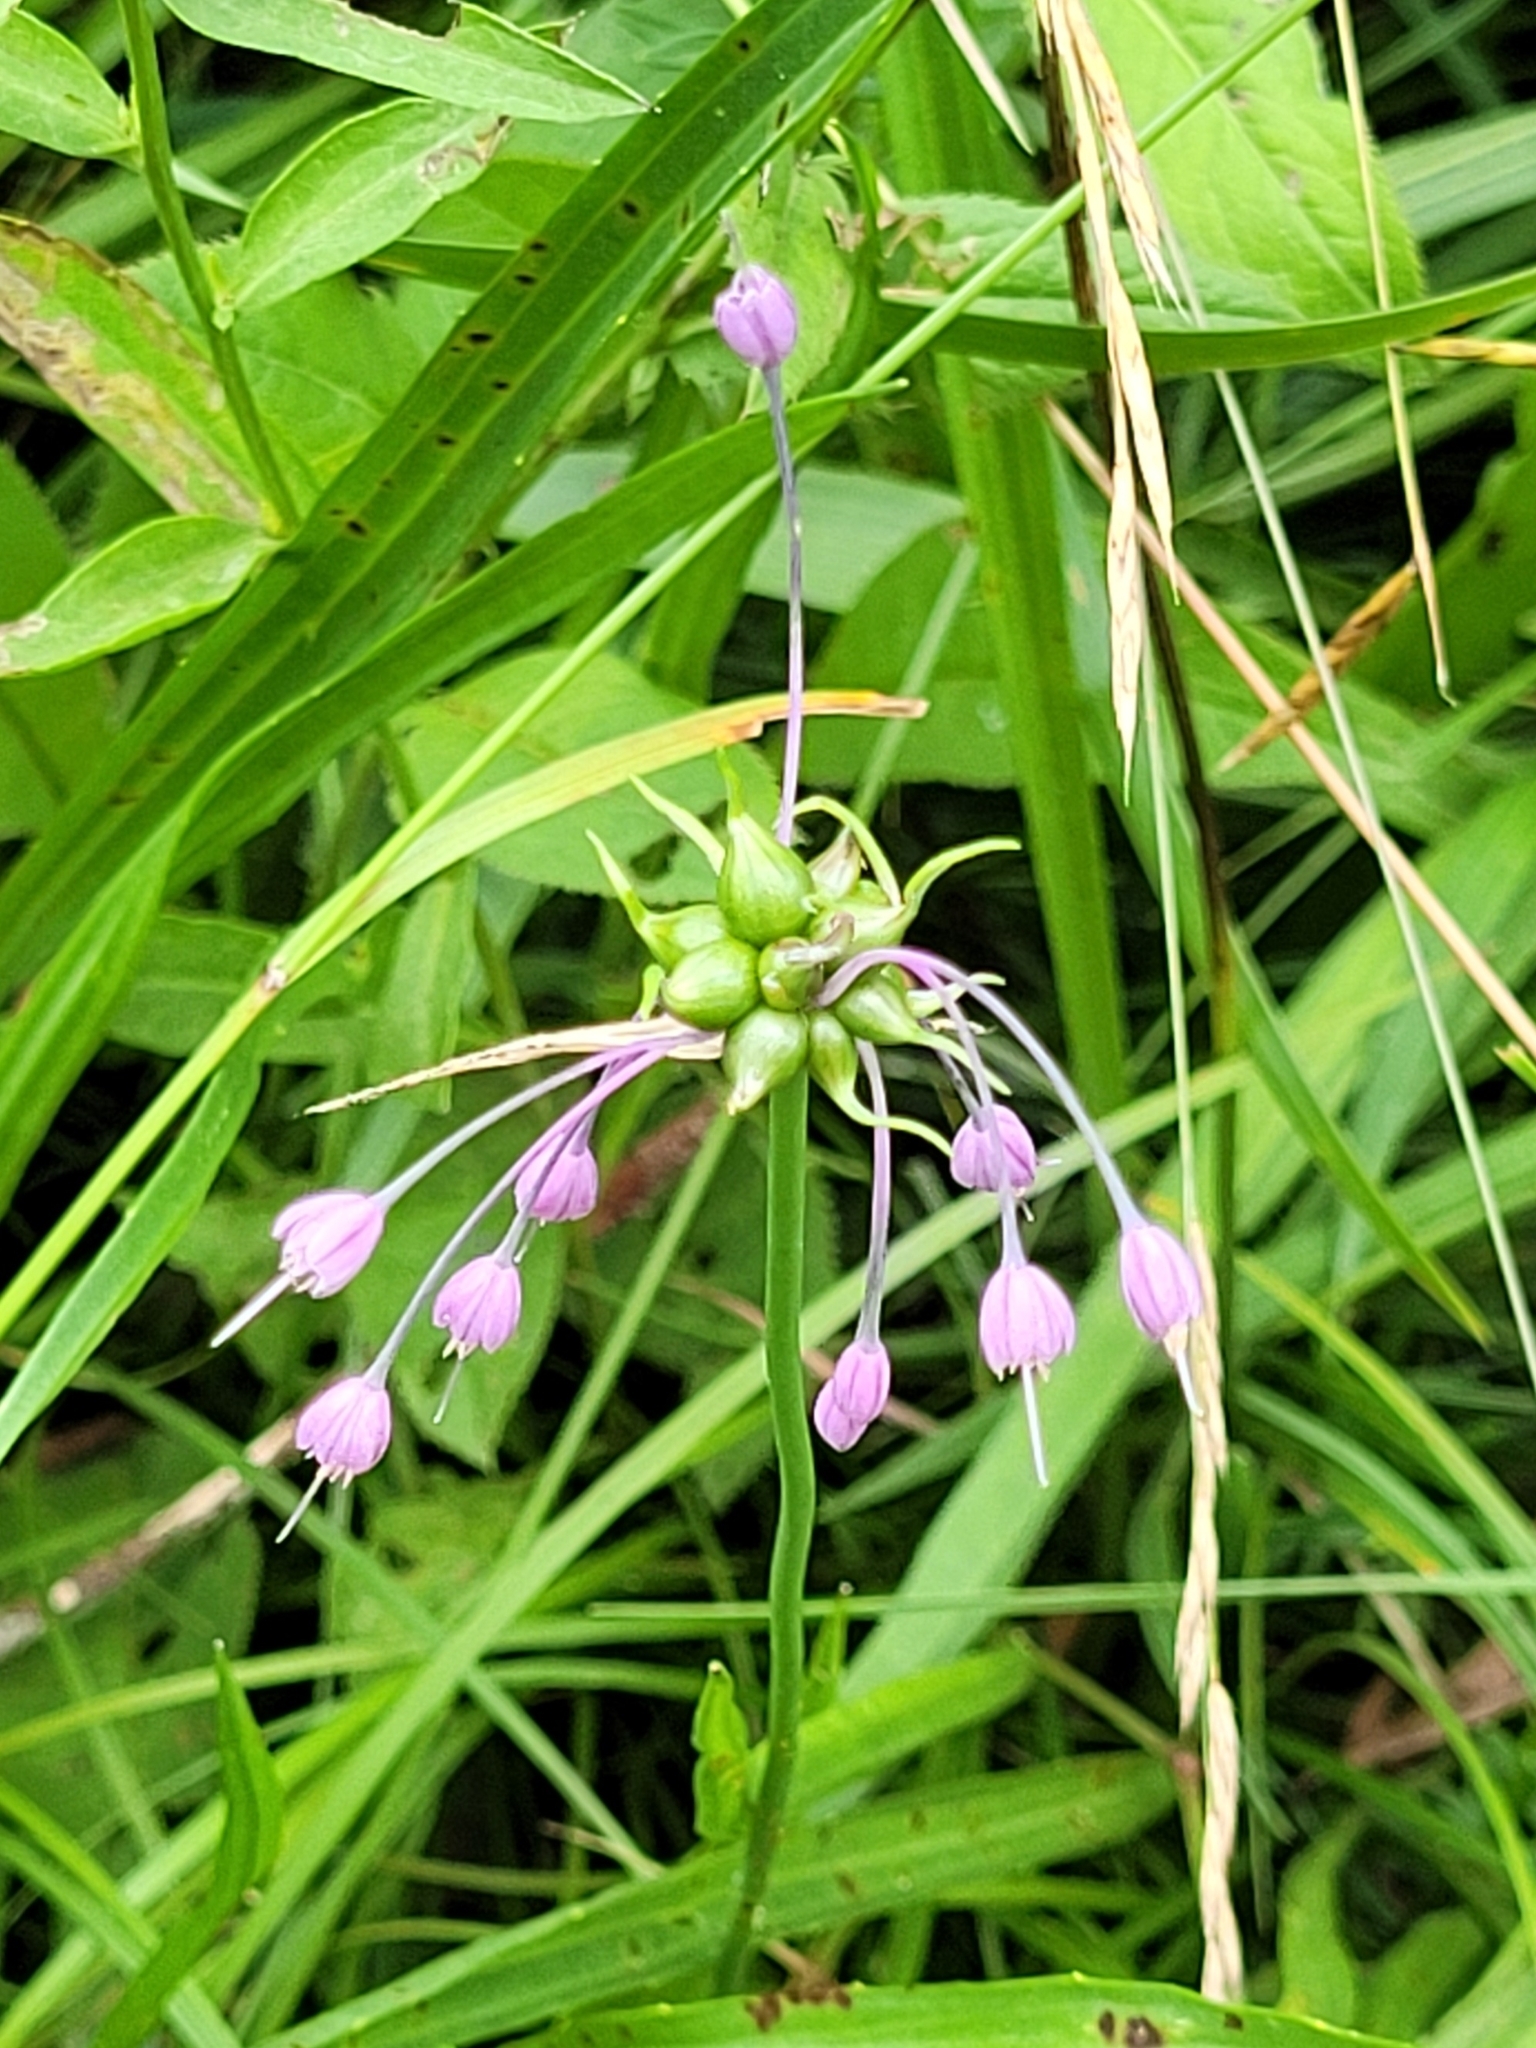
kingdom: Plantae
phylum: Tracheophyta
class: Liliopsida
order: Asparagales
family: Amaryllidaceae
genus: Allium
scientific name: Allium carinatum
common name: Keeled garlic
